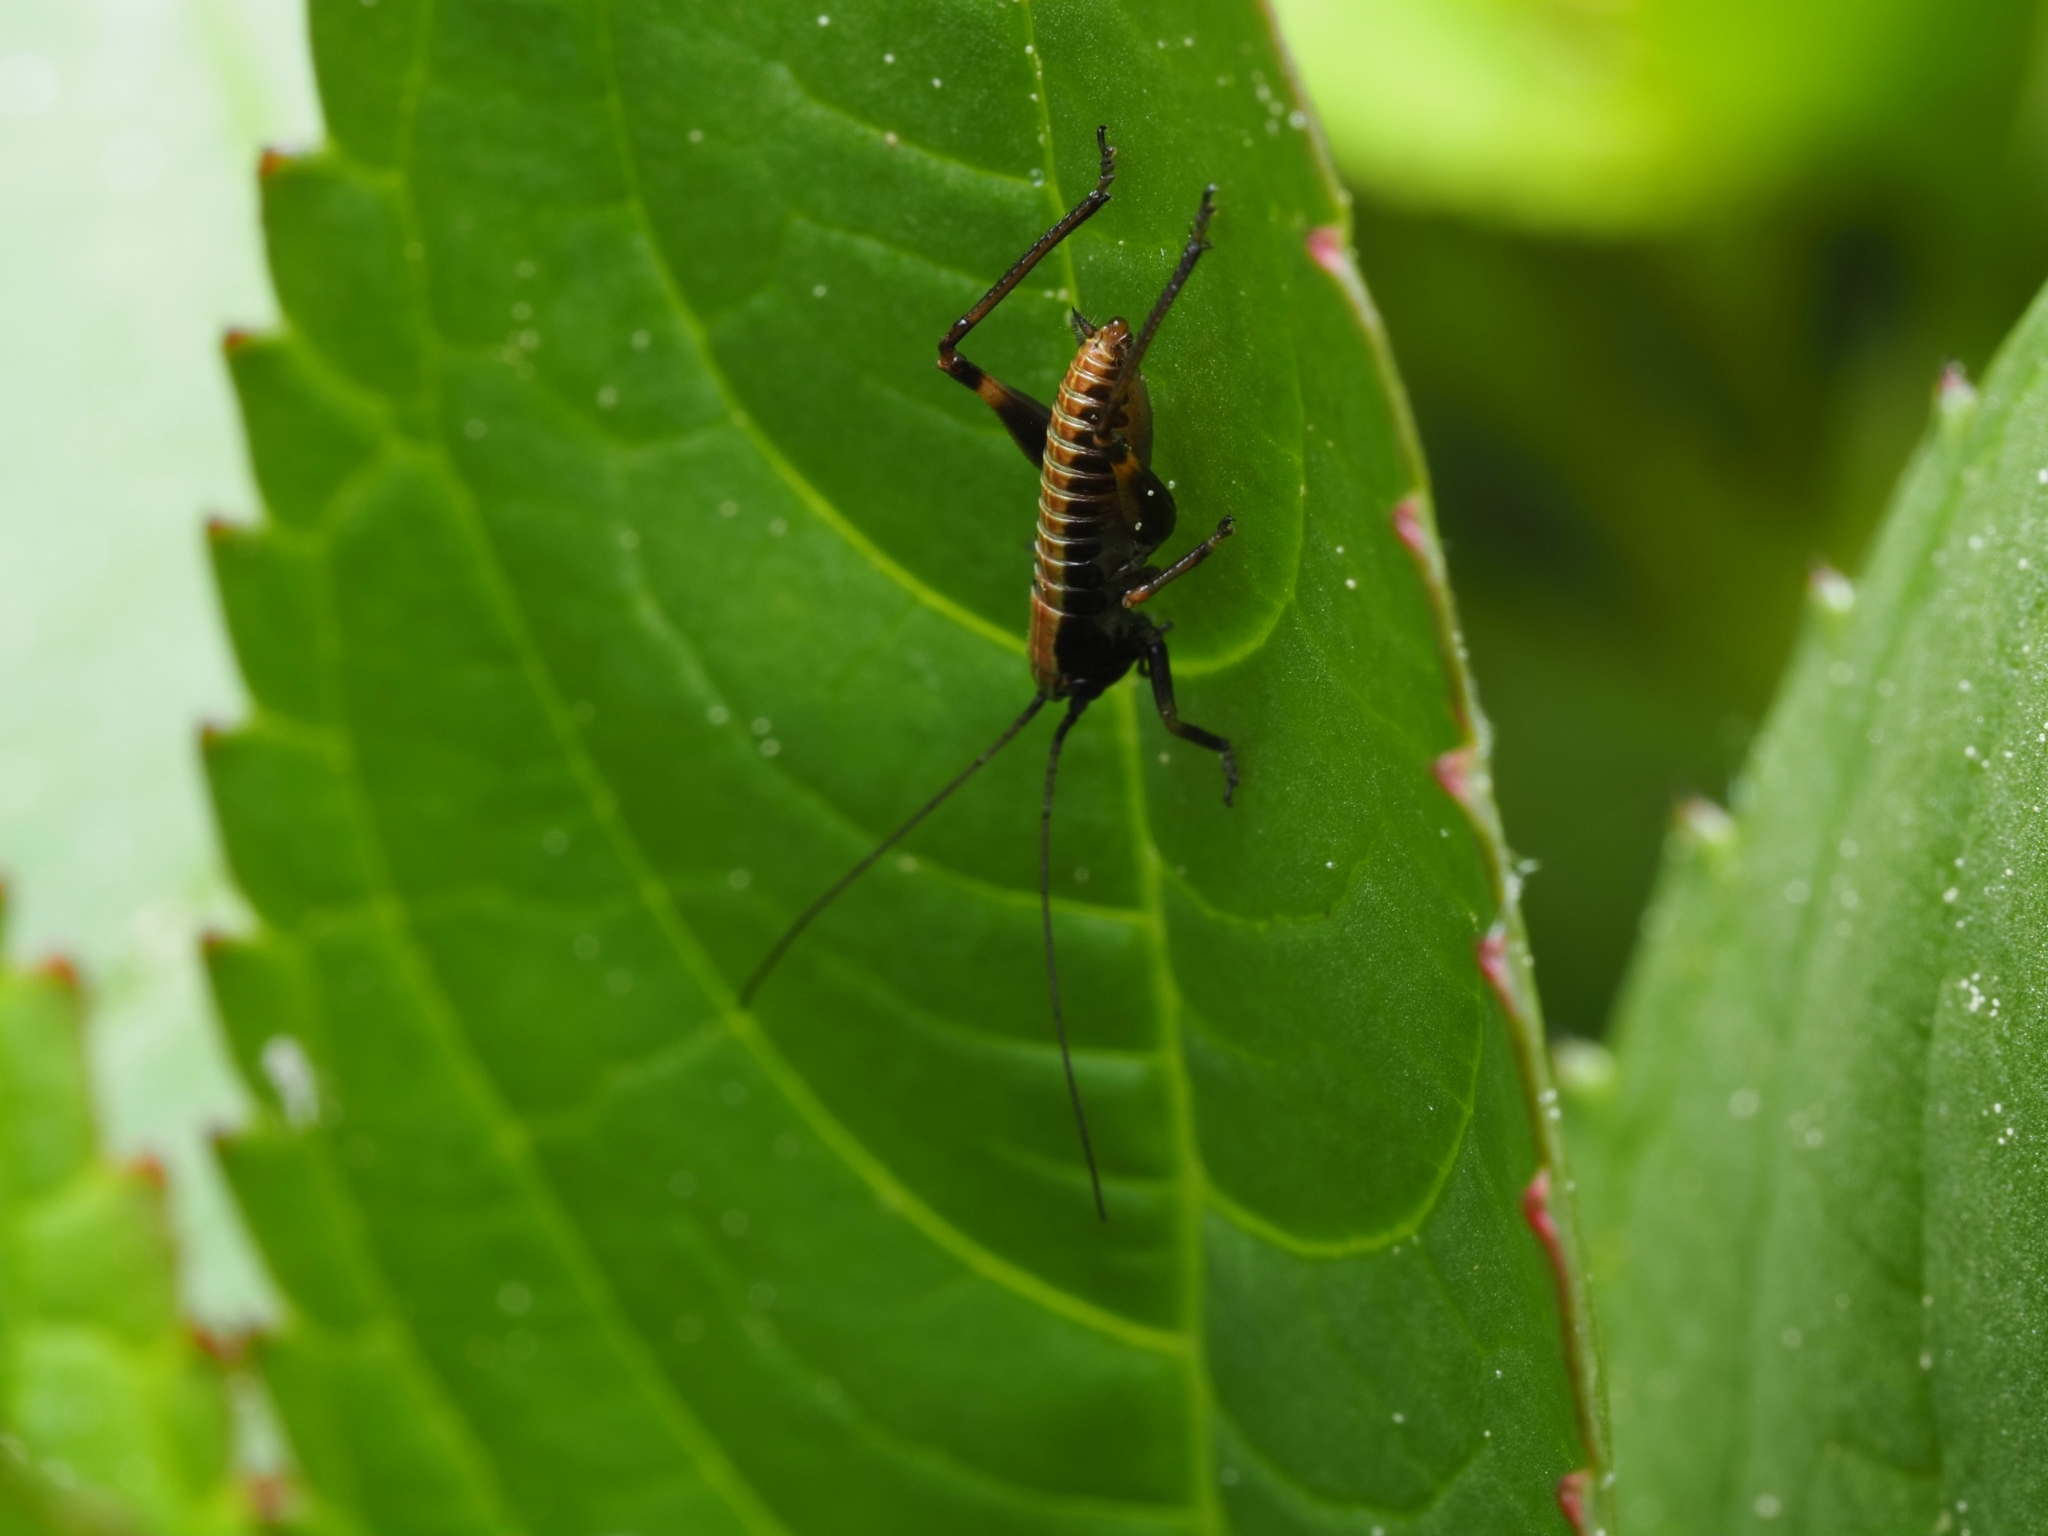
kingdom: Animalia
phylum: Arthropoda
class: Insecta
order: Orthoptera
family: Tettigoniidae
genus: Pholidoptera
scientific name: Pholidoptera griseoaptera
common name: Dark bush-cricket
